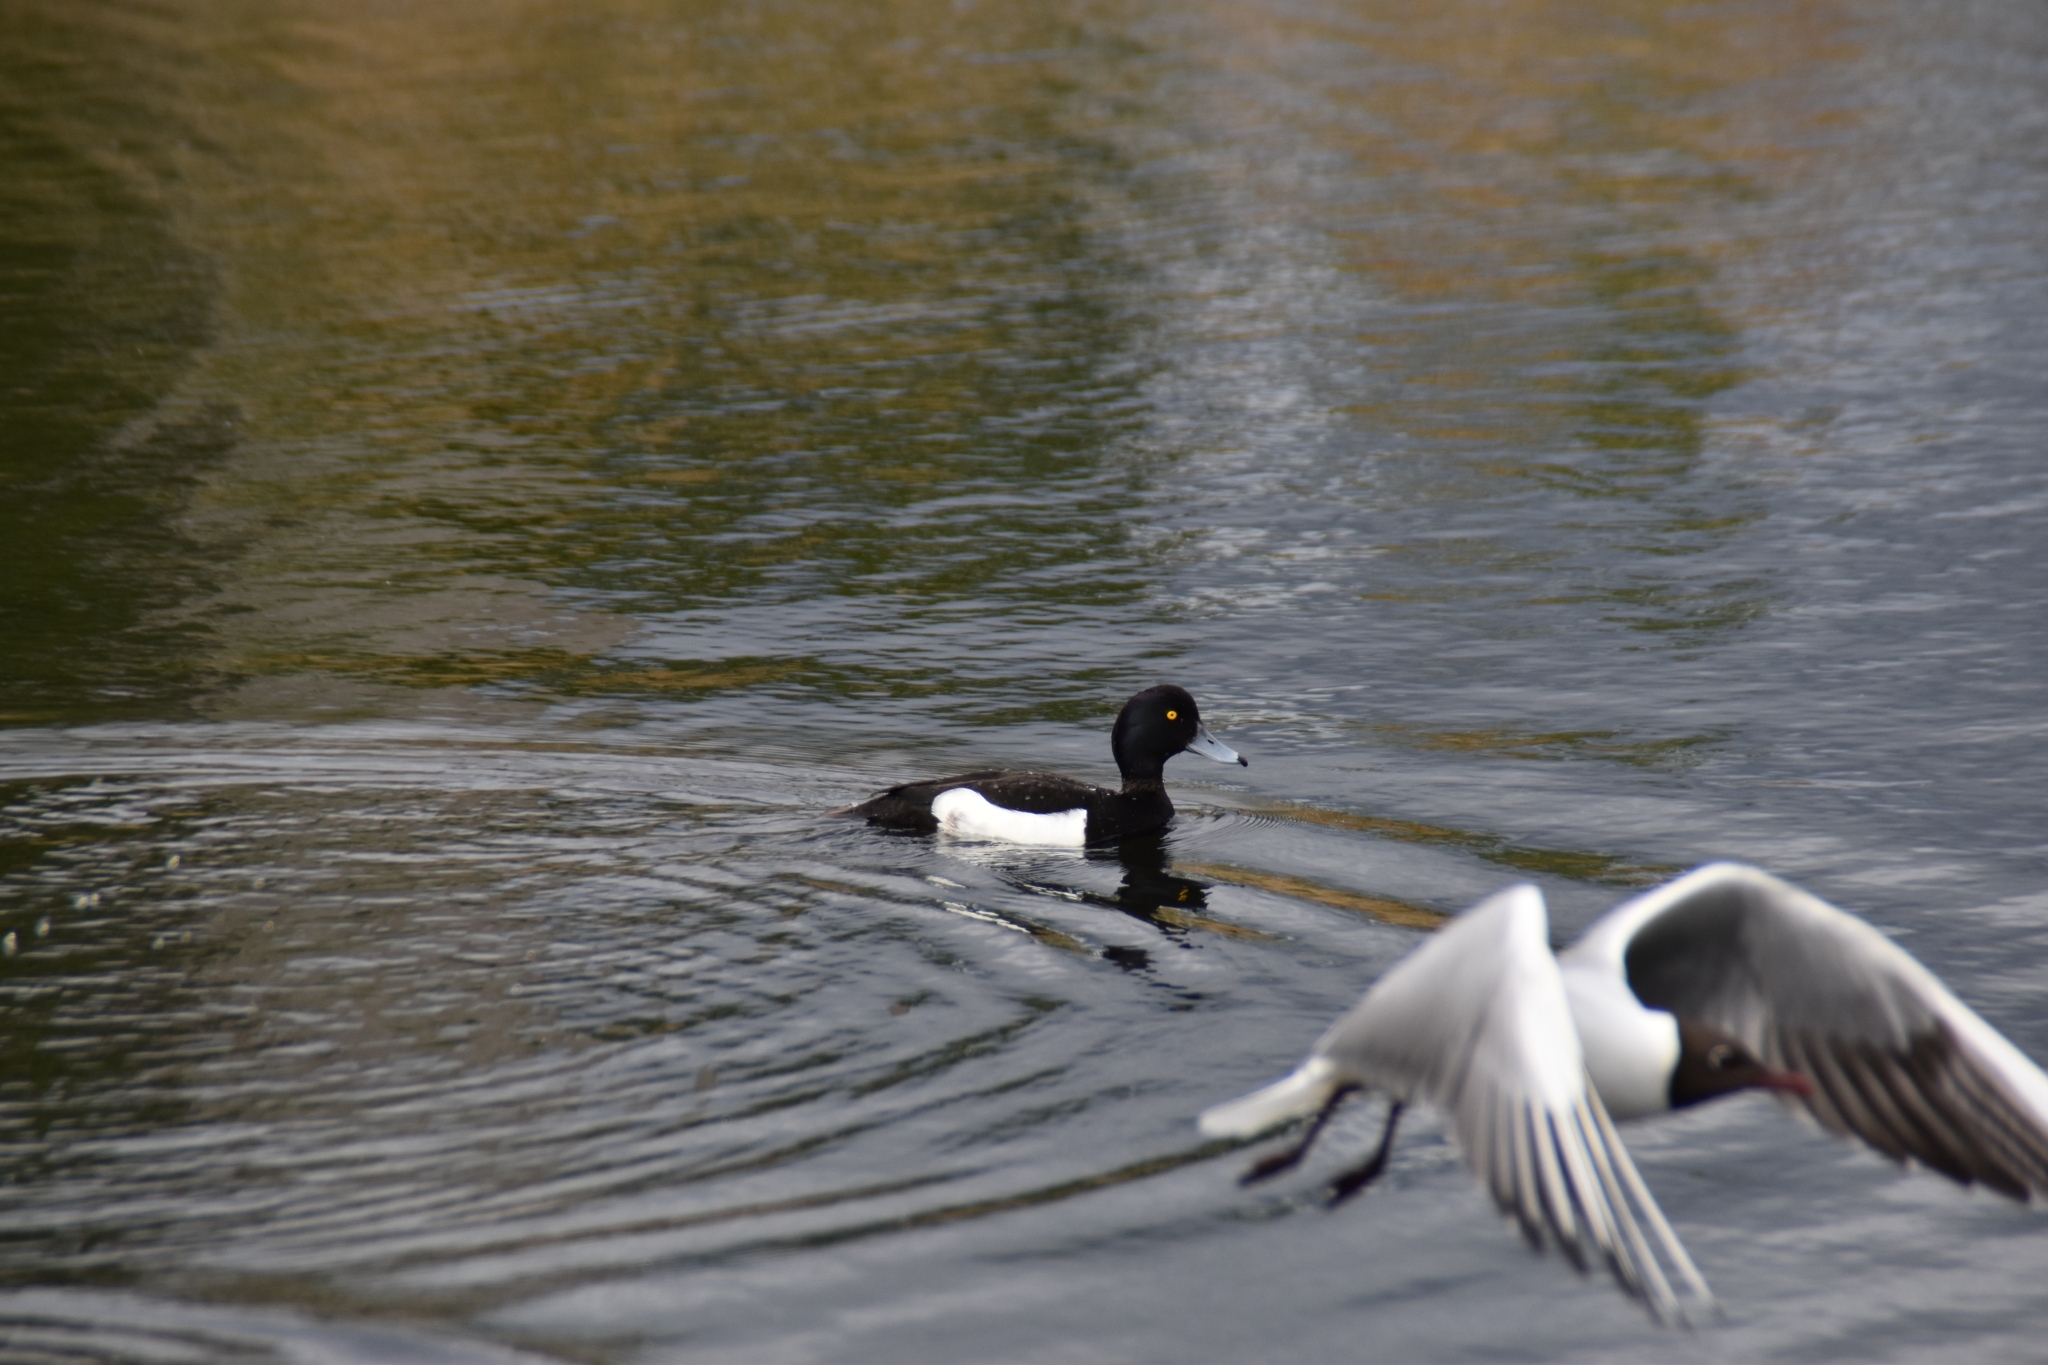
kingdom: Animalia
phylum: Chordata
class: Aves
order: Anseriformes
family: Anatidae
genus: Aythya
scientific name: Aythya fuligula
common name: Tufted duck
